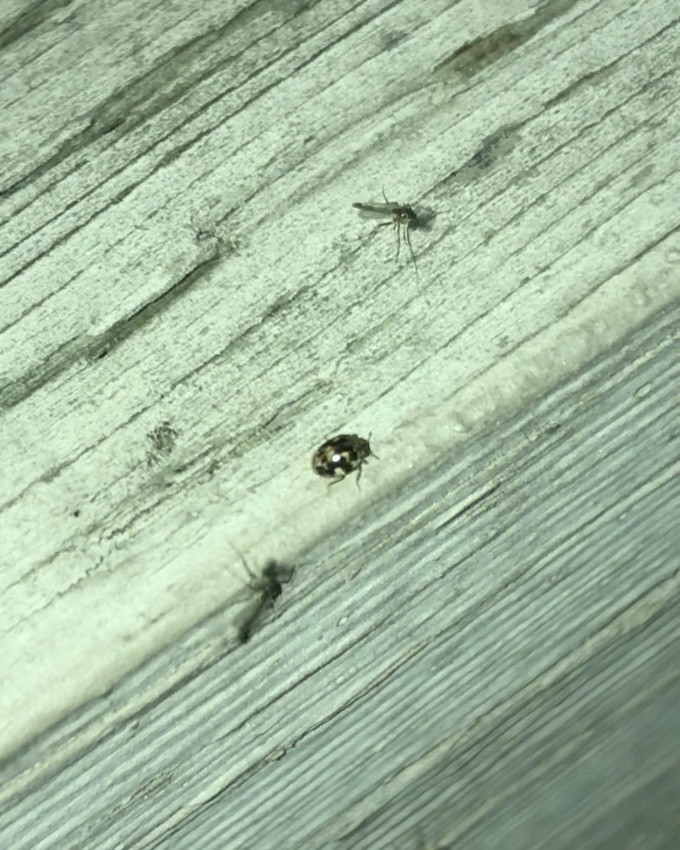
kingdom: Animalia
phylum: Arthropoda
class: Insecta
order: Coleoptera
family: Coccinellidae
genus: Psyllobora
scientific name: Psyllobora vigintimaculata
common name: Ladybird beetle
